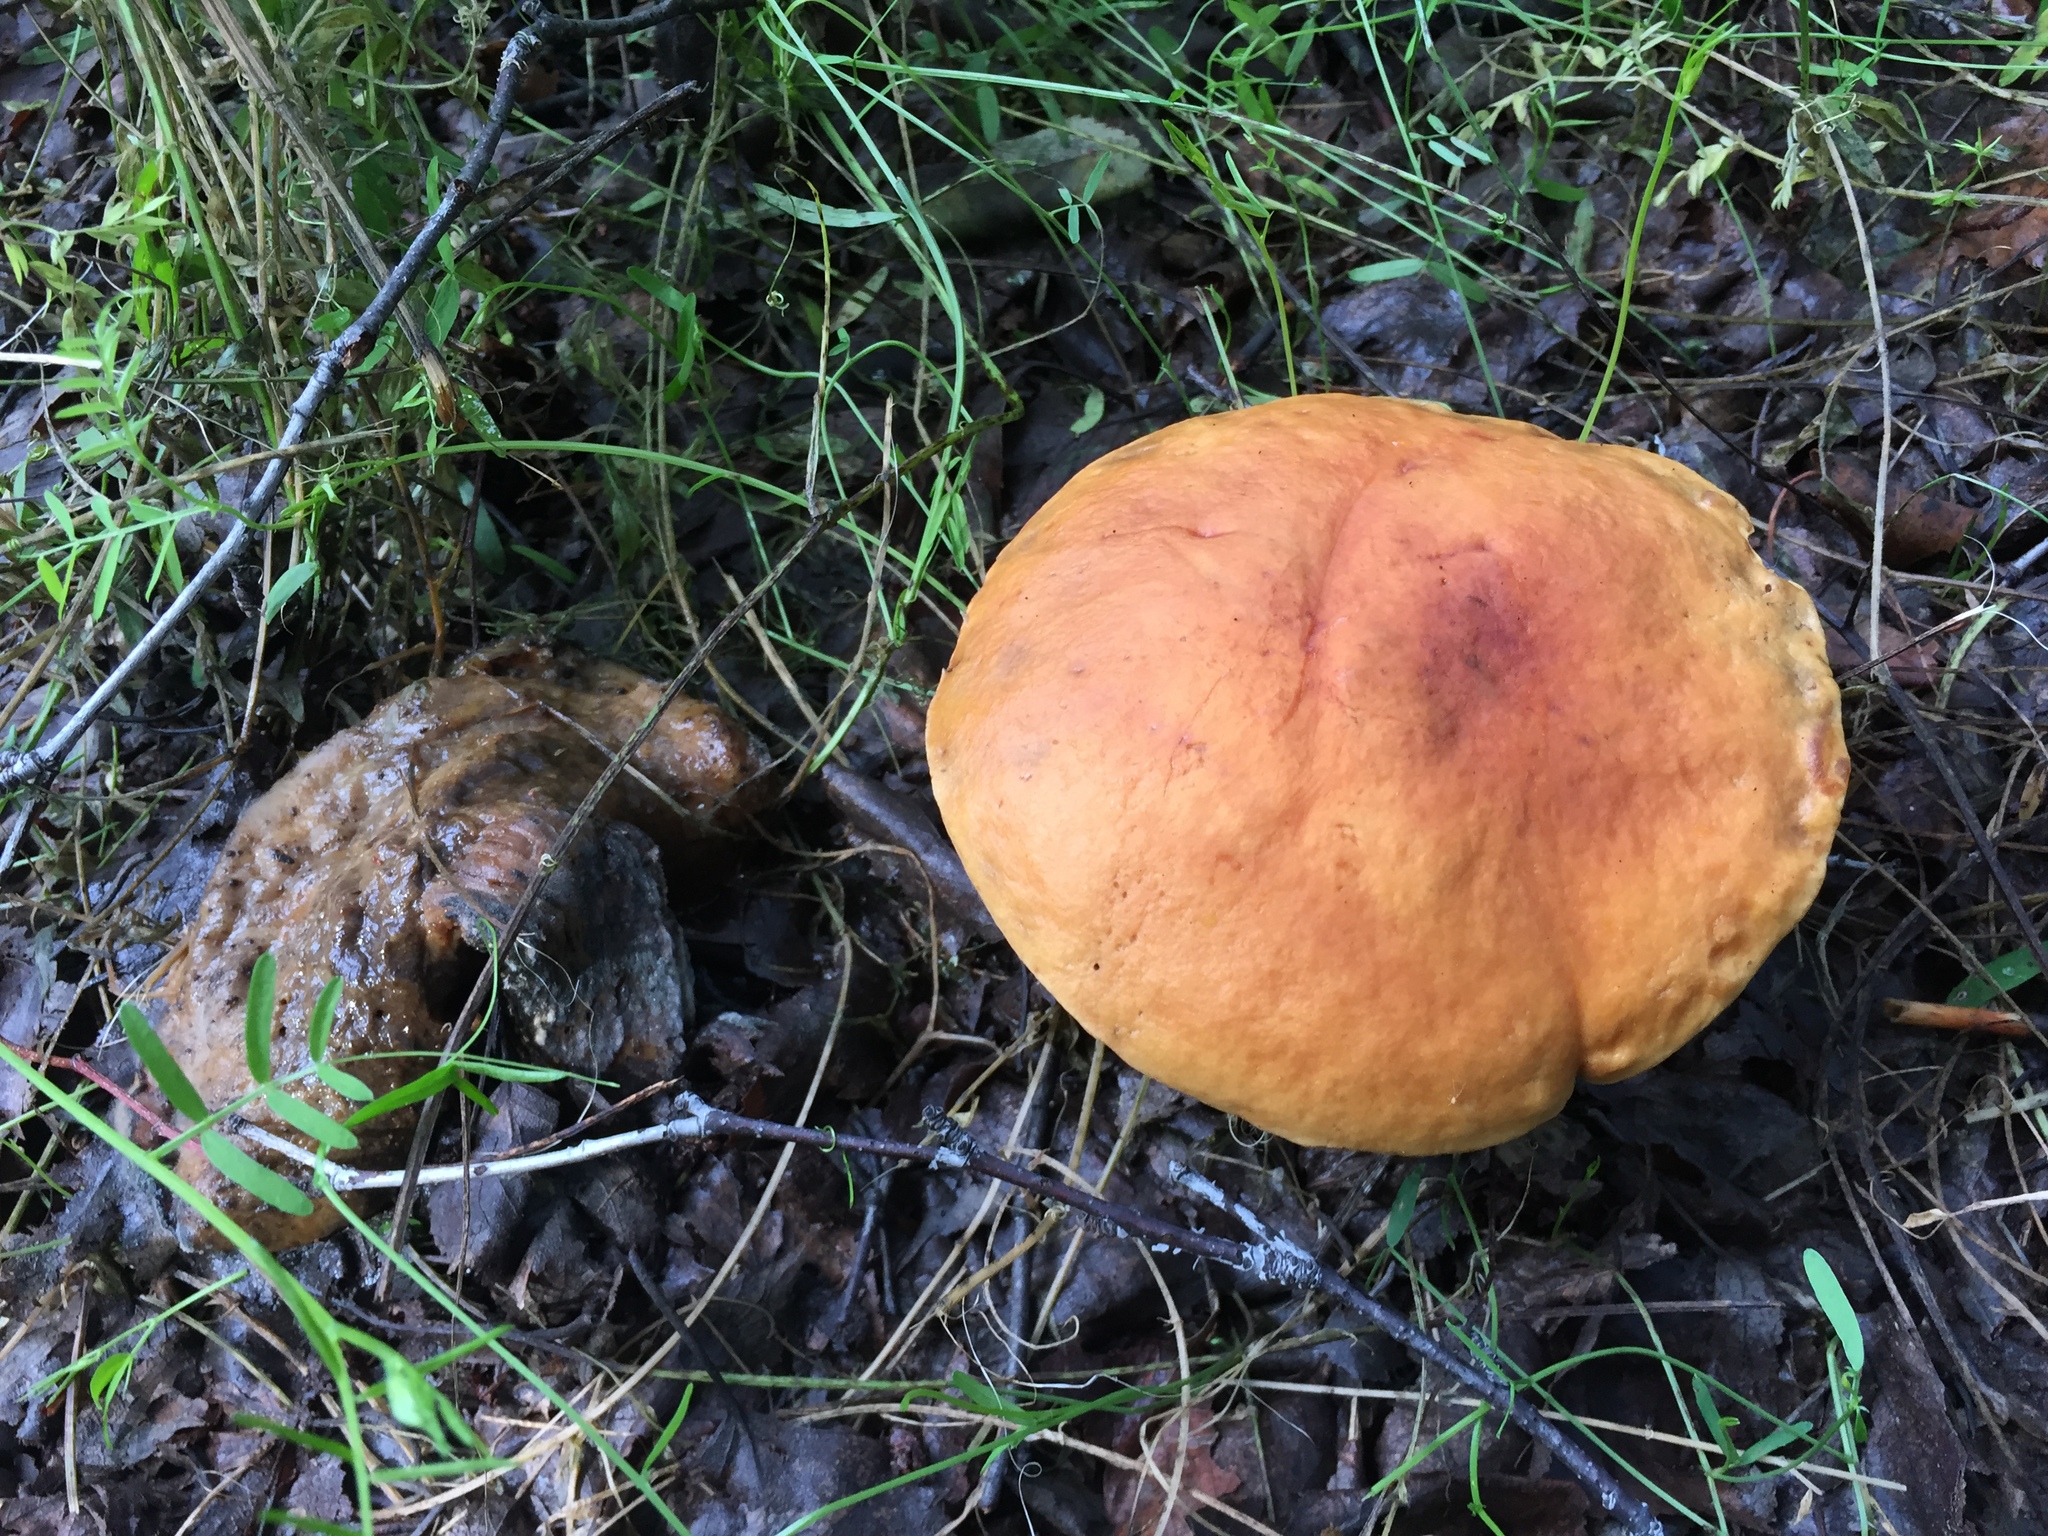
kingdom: Fungi
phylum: Basidiomycota
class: Agaricomycetes
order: Boletales
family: Boletaceae
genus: Hemileccinum
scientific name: Hemileccinum subglabripes
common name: Smoothish-stemmed bolete
